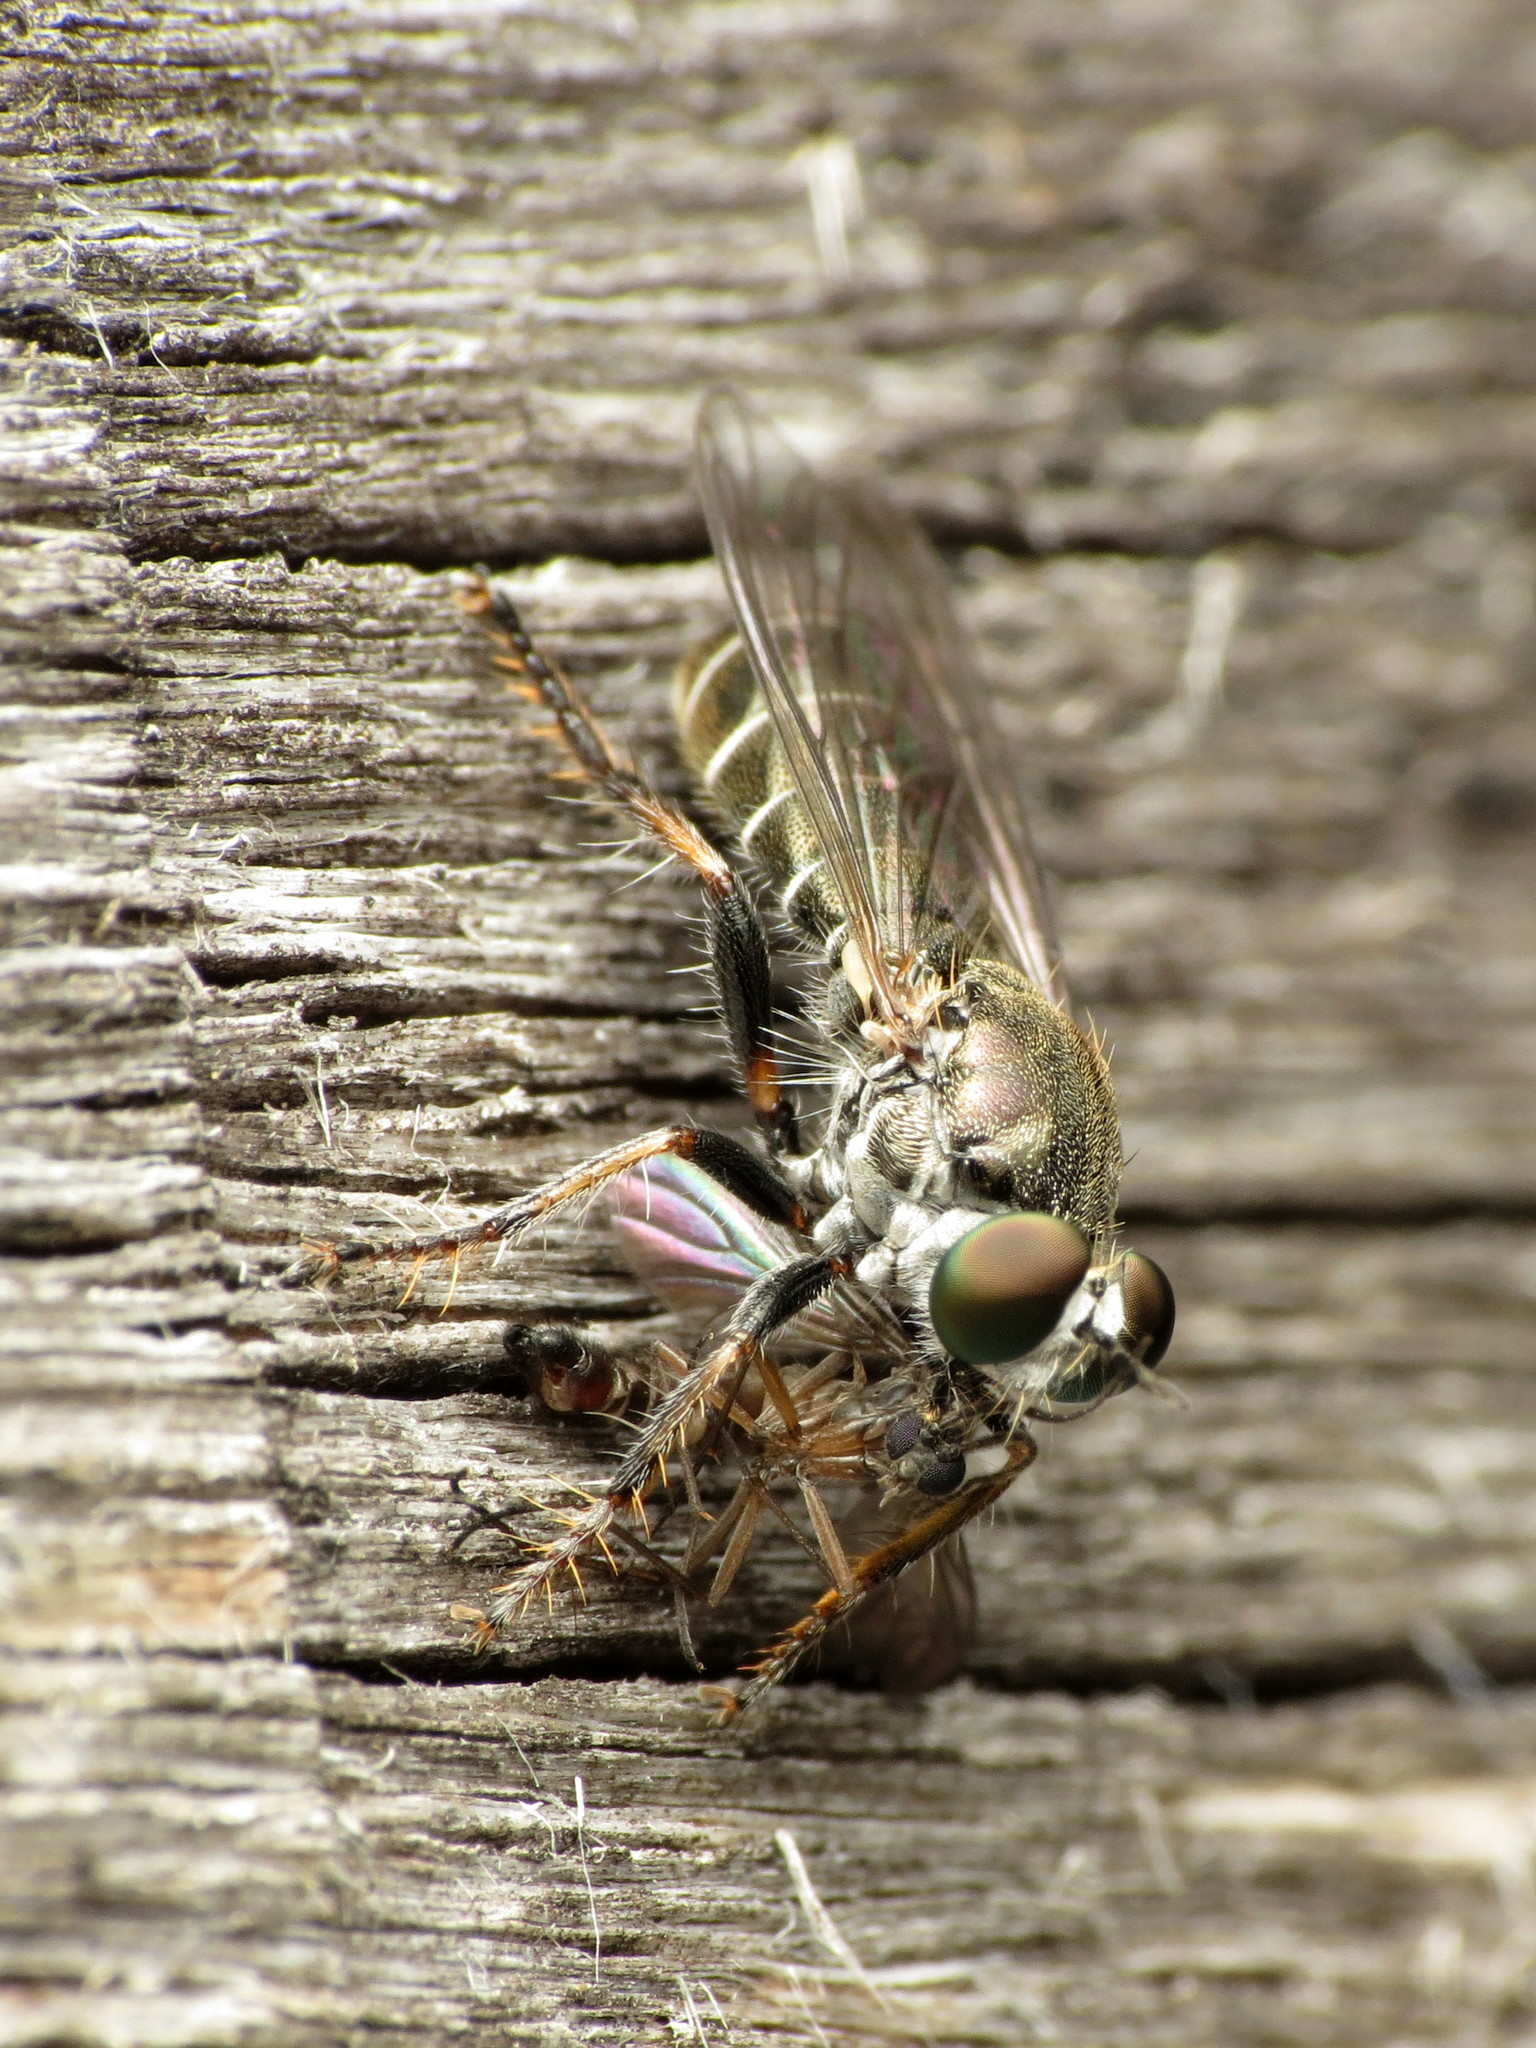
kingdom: Animalia
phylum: Arthropoda
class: Insecta
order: Diptera
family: Asilidae
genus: Atomosia
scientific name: Atomosia puella
